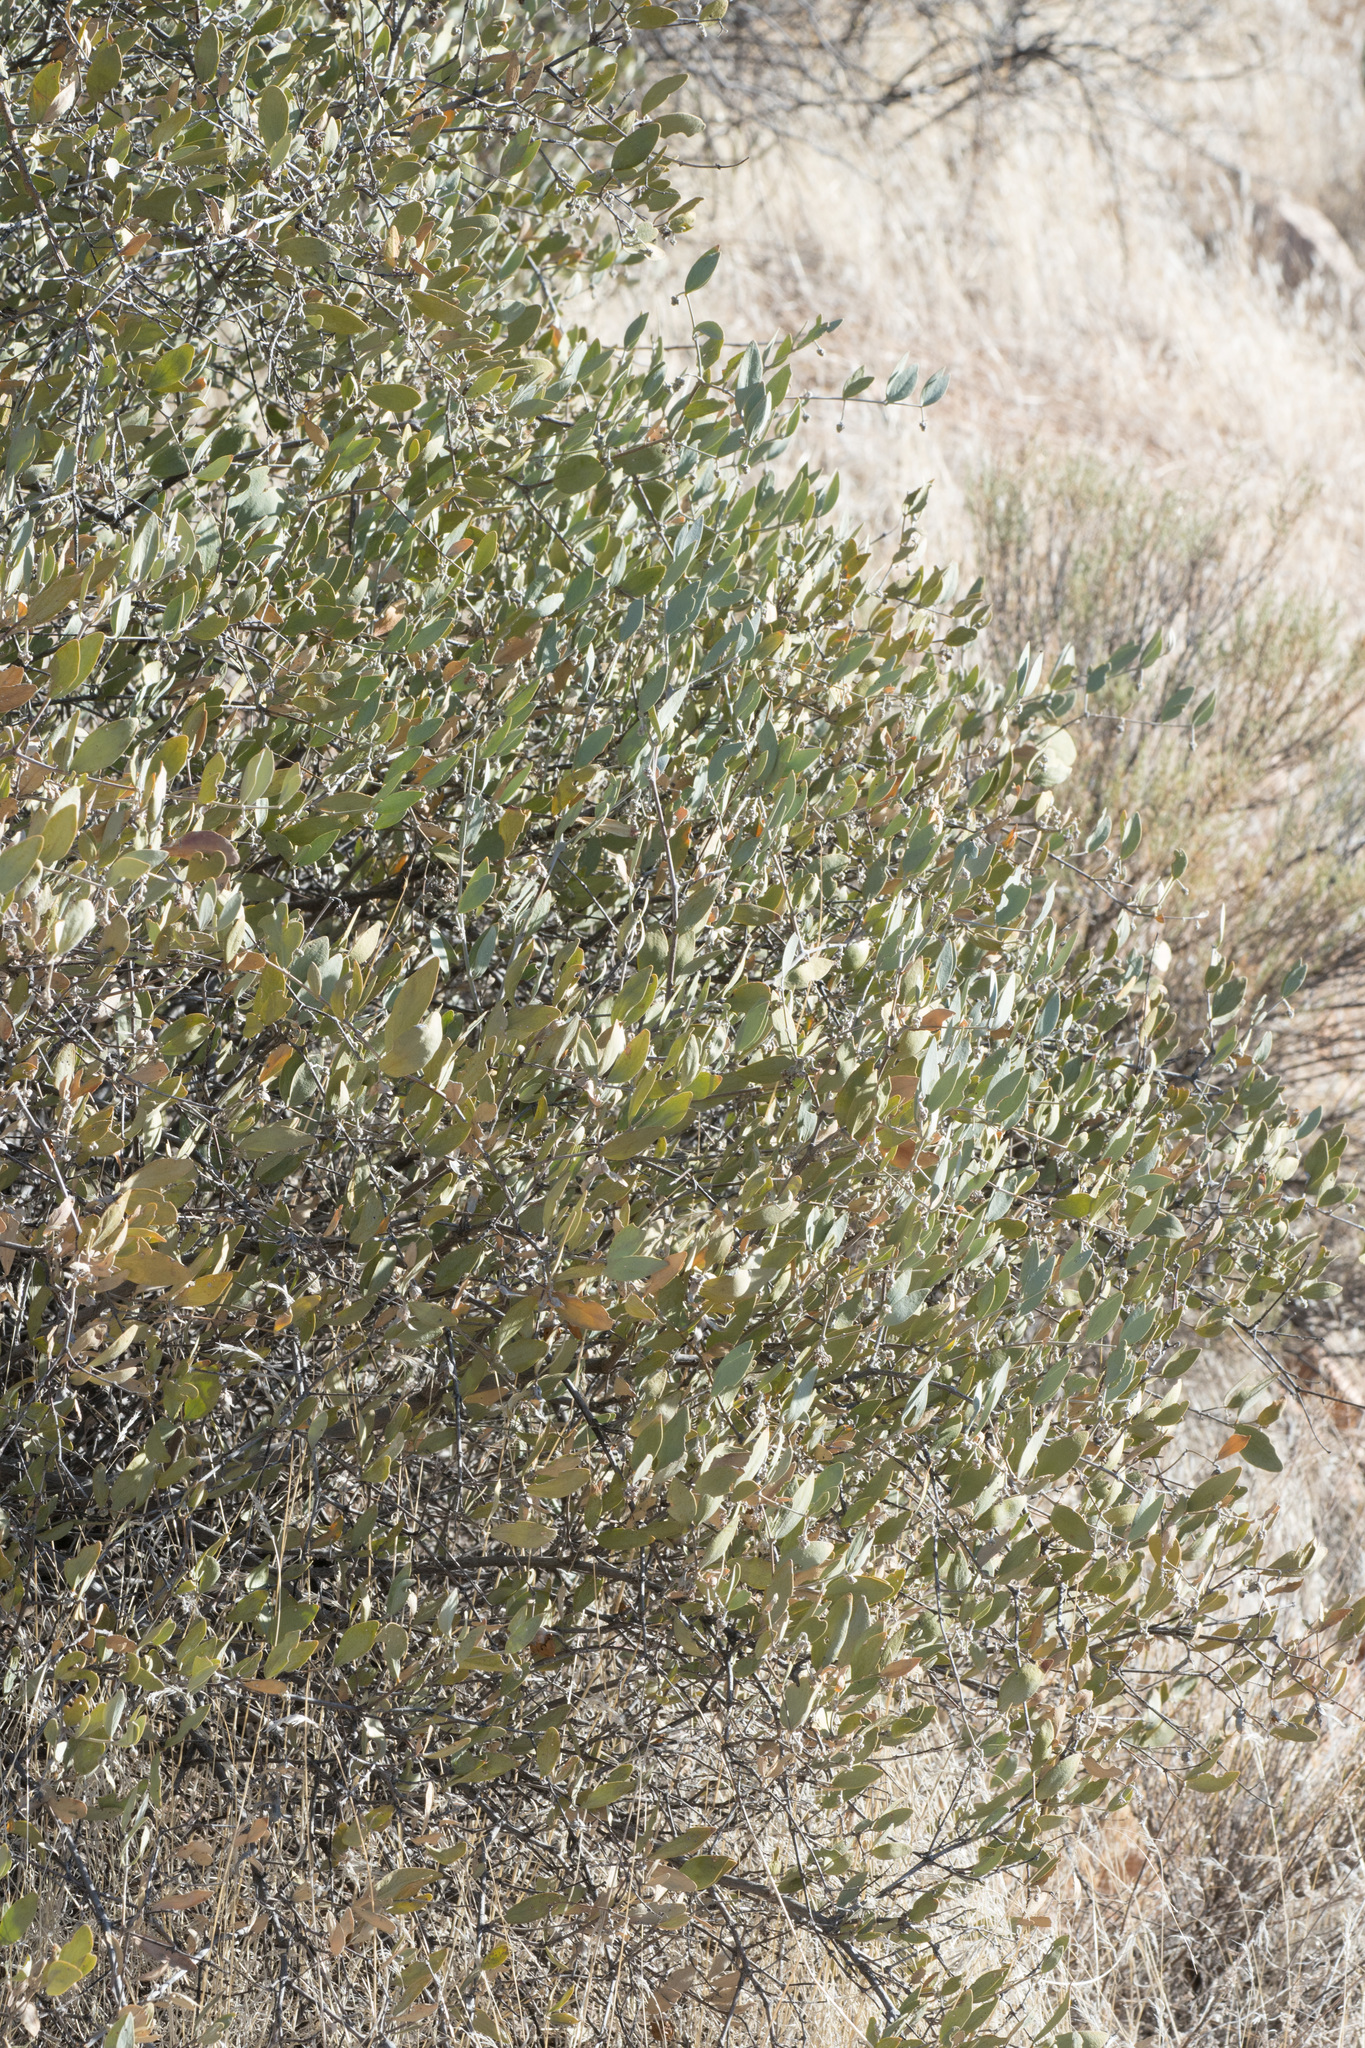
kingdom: Plantae
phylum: Tracheophyta
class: Magnoliopsida
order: Caryophyllales
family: Simmondsiaceae
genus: Simmondsia
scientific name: Simmondsia chinensis
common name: Jojoba
